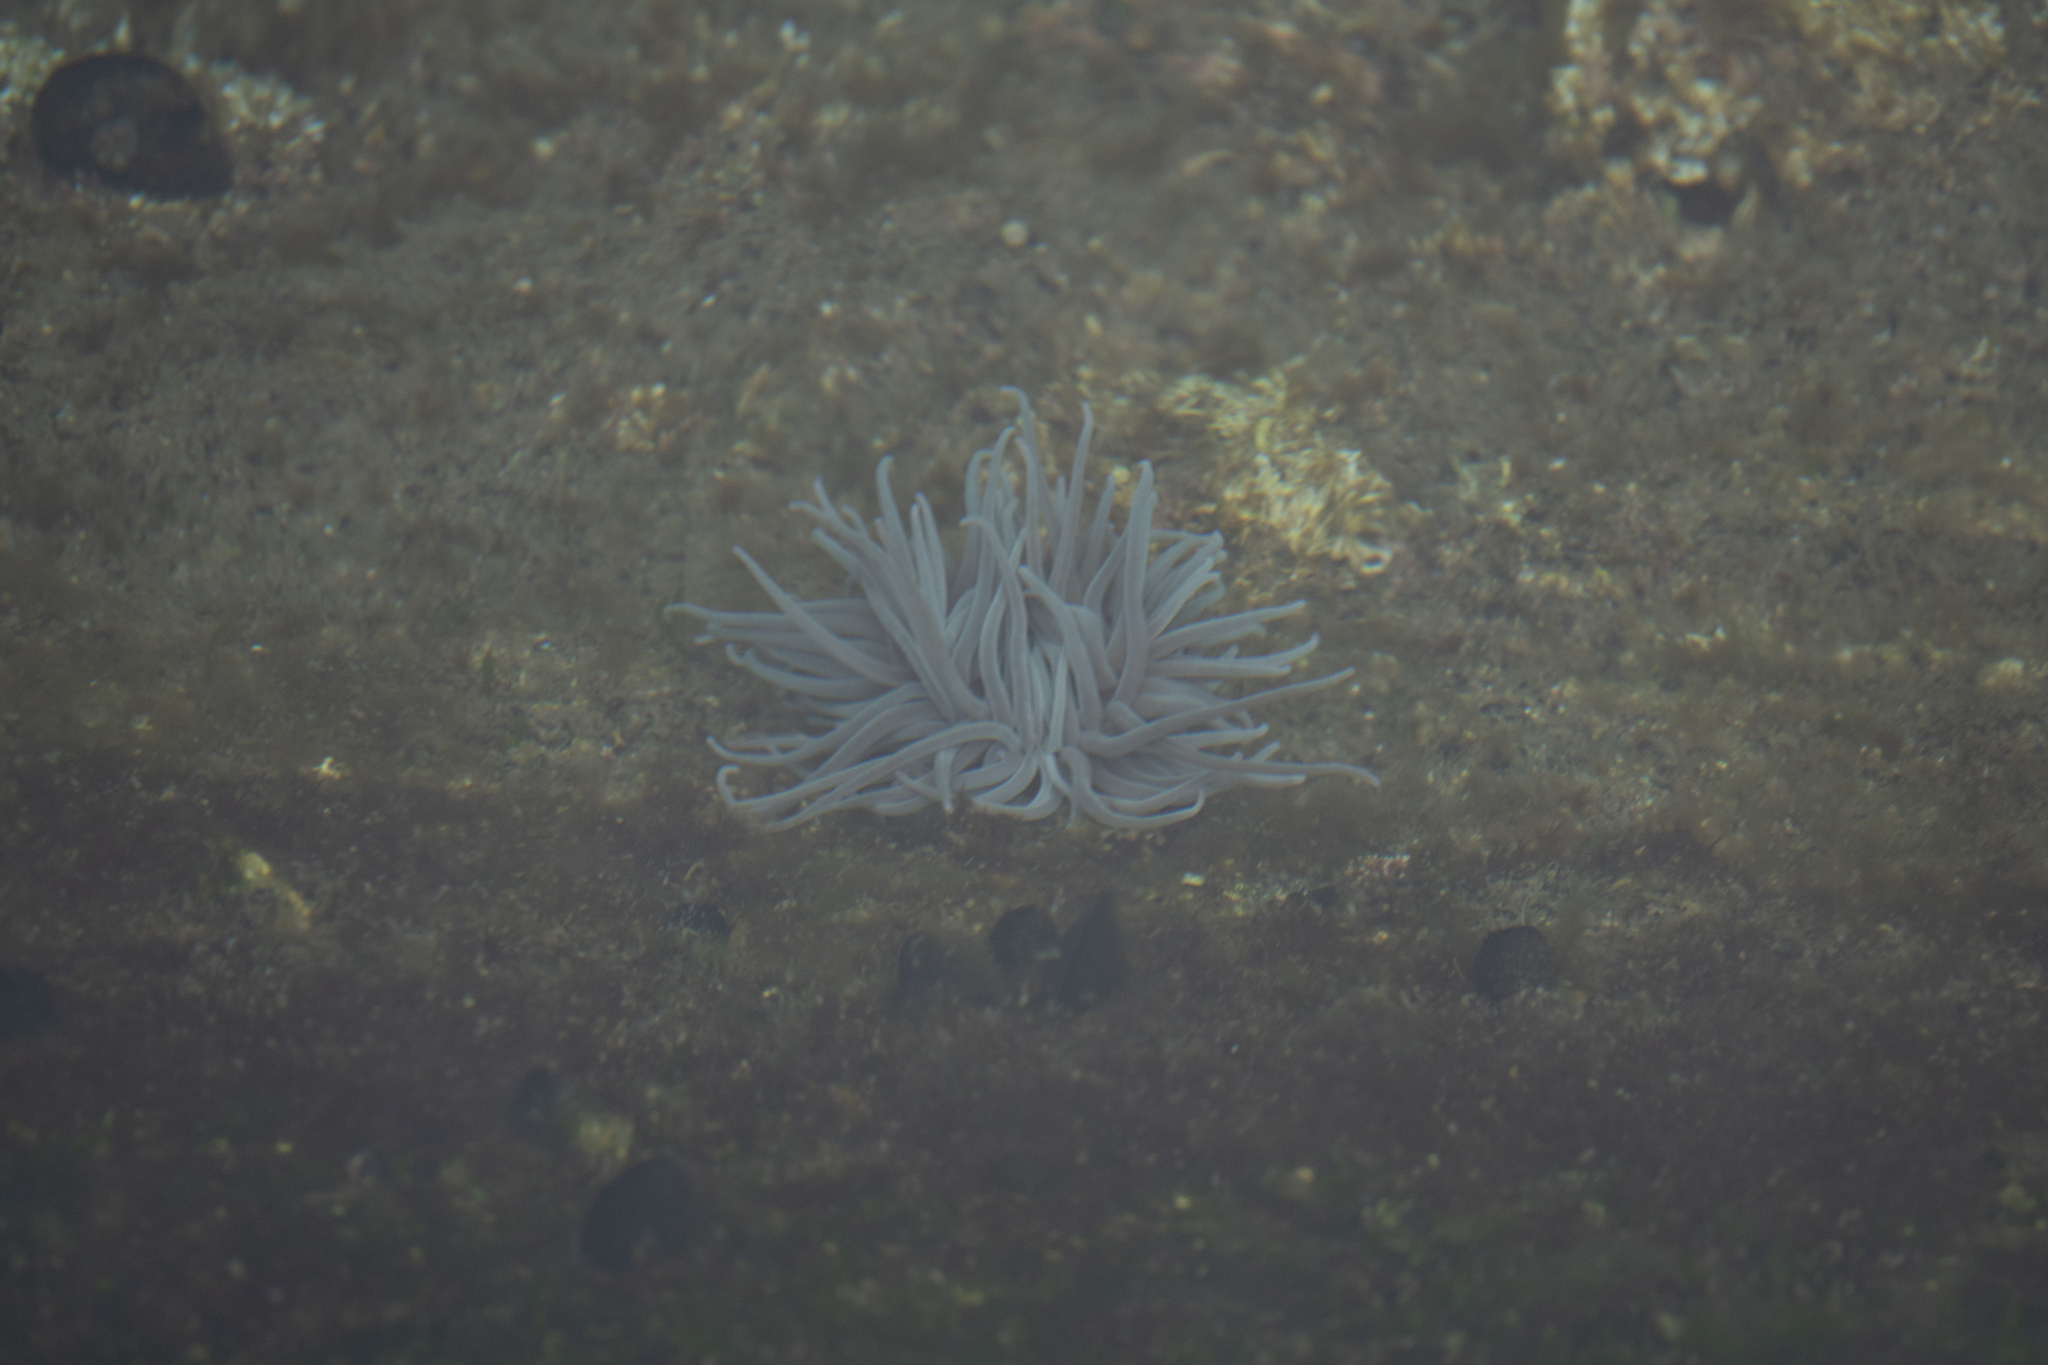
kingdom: Animalia
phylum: Cnidaria
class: Anthozoa
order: Actiniaria
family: Actiniidae
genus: Anemonia
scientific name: Anemonia viridis
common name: Snakelocks anemone
